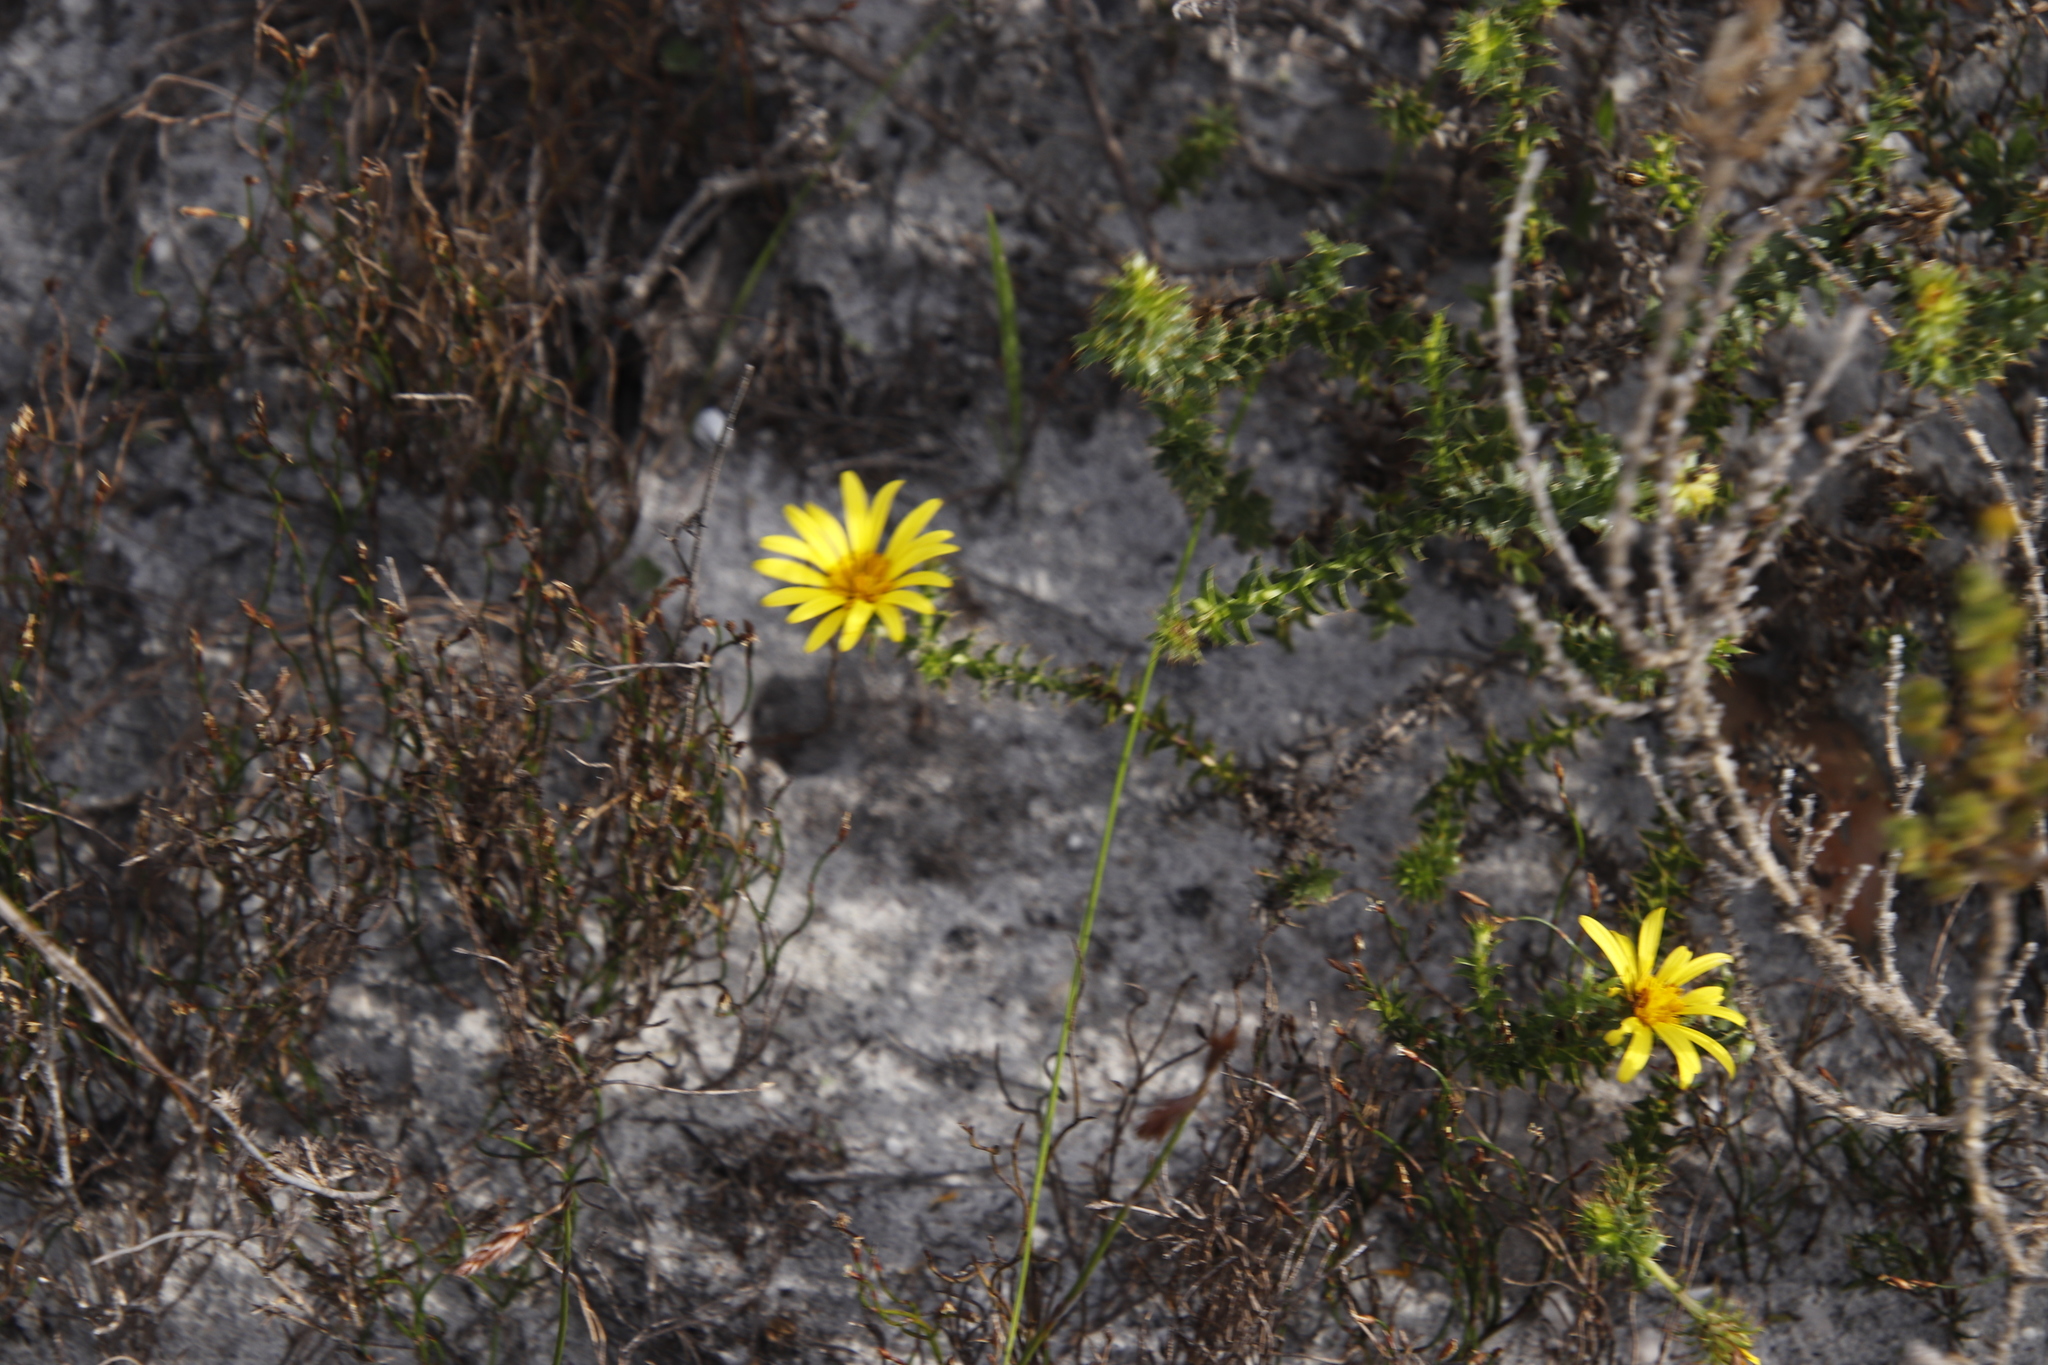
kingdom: Plantae
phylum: Tracheophyta
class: Magnoliopsida
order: Asterales
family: Asteraceae
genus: Cullumia
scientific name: Cullumia setosa
